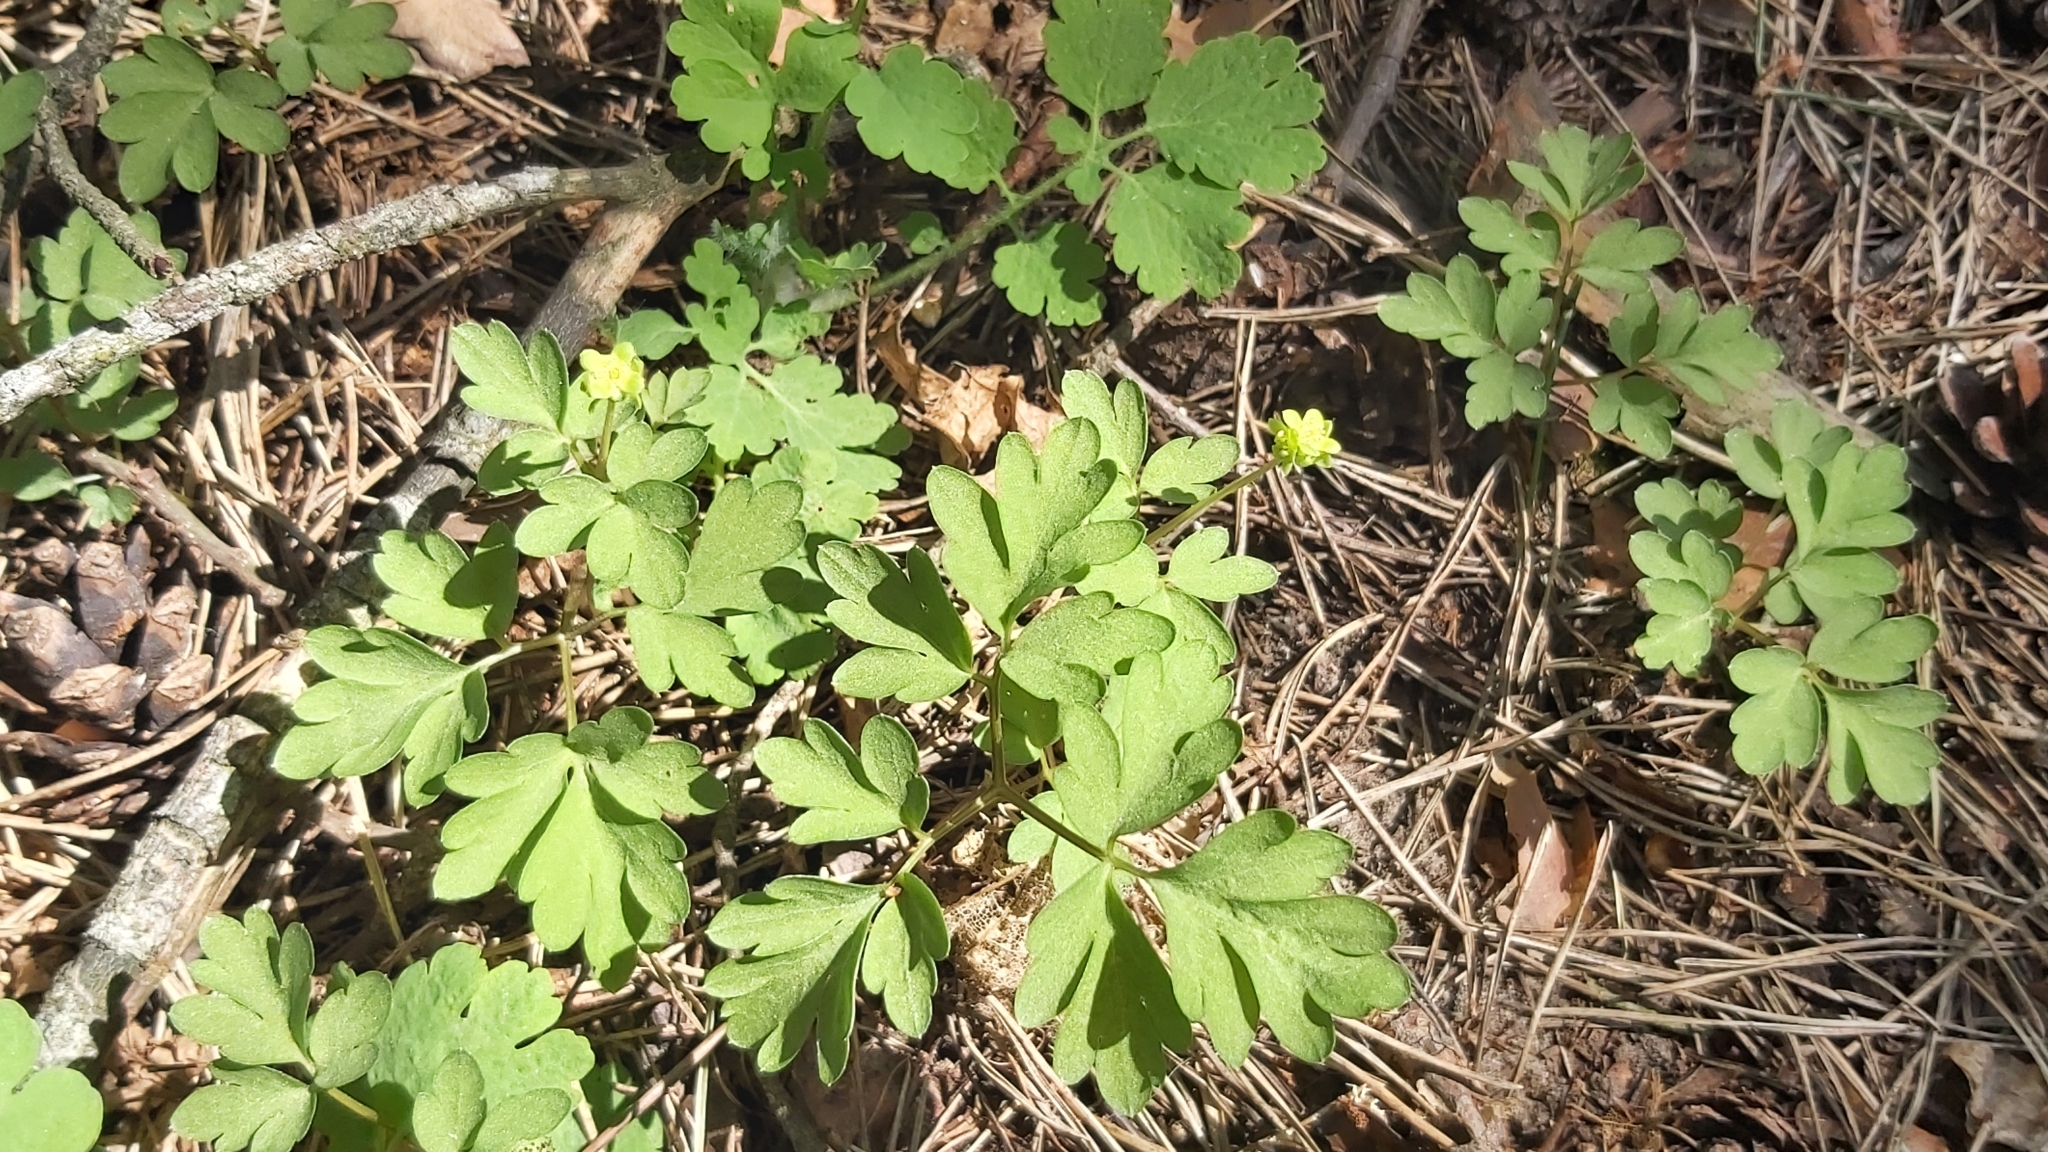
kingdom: Plantae
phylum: Tracheophyta
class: Magnoliopsida
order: Dipsacales
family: Viburnaceae
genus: Adoxa
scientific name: Adoxa moschatellina
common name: Moschatel
